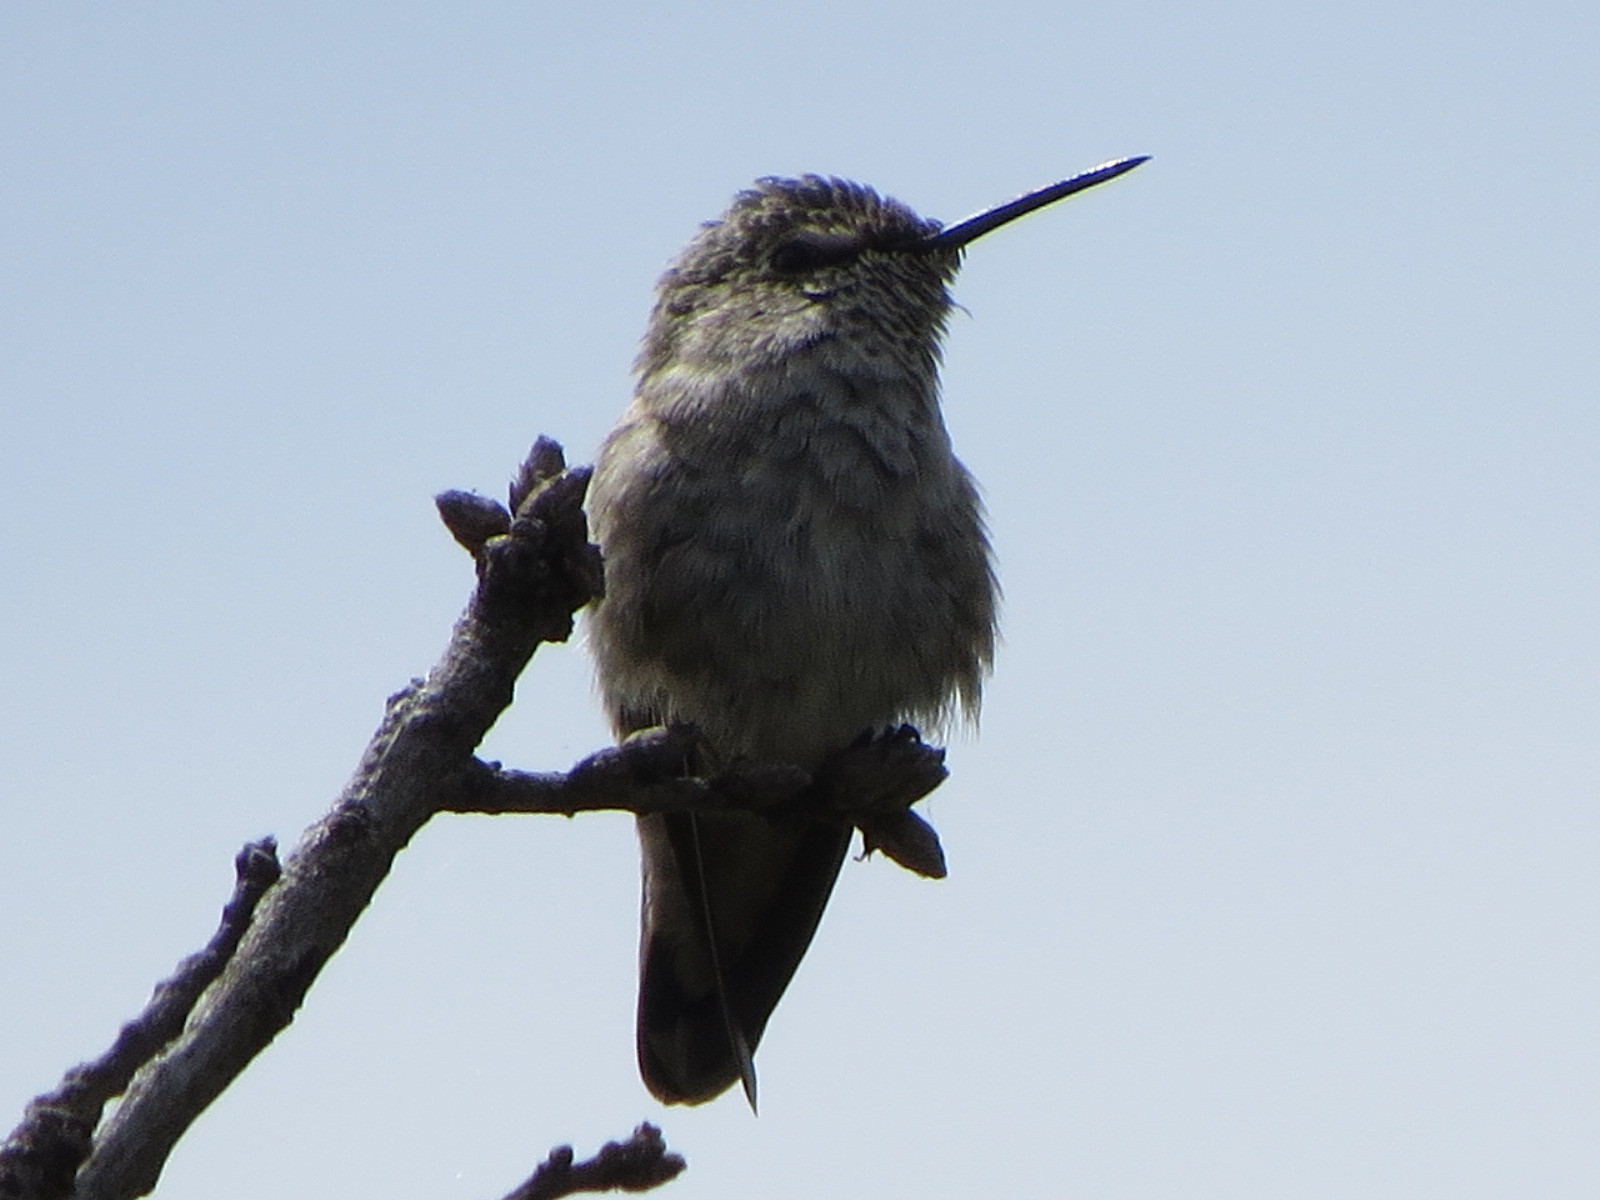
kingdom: Animalia
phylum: Chordata
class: Aves
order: Apodiformes
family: Trochilidae
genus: Calypte
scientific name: Calypte anna
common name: Anna's hummingbird
